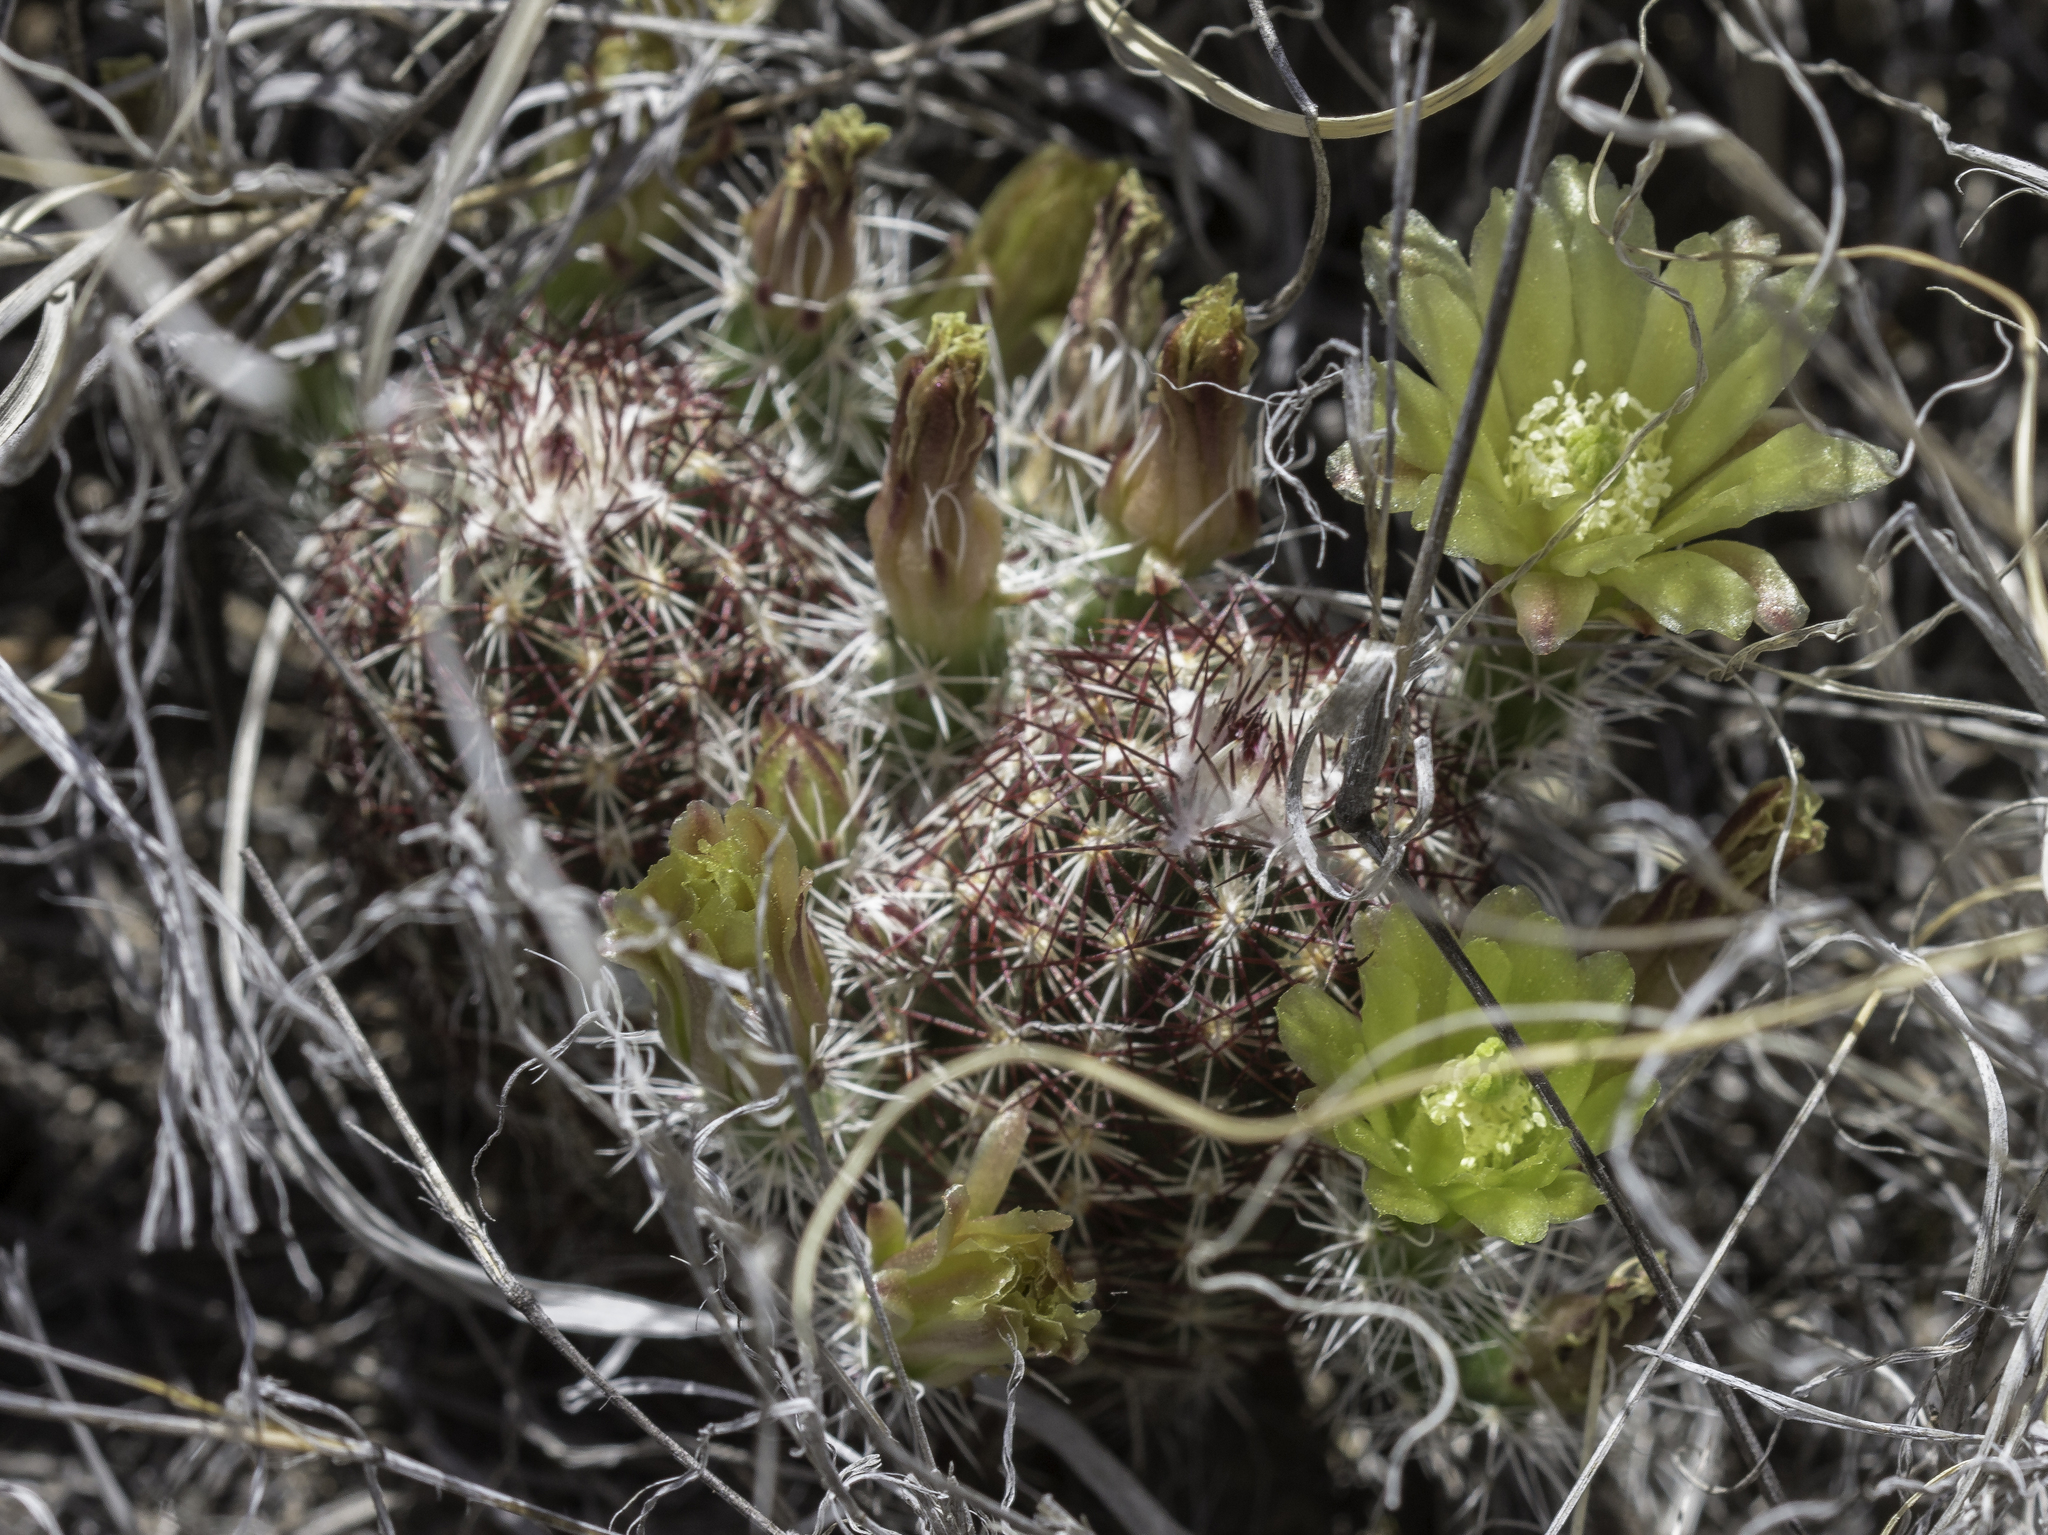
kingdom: Plantae
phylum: Tracheophyta
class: Magnoliopsida
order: Caryophyllales
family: Cactaceae
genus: Echinocereus
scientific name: Echinocereus viridiflorus
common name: Nylon hedgehog cactus
